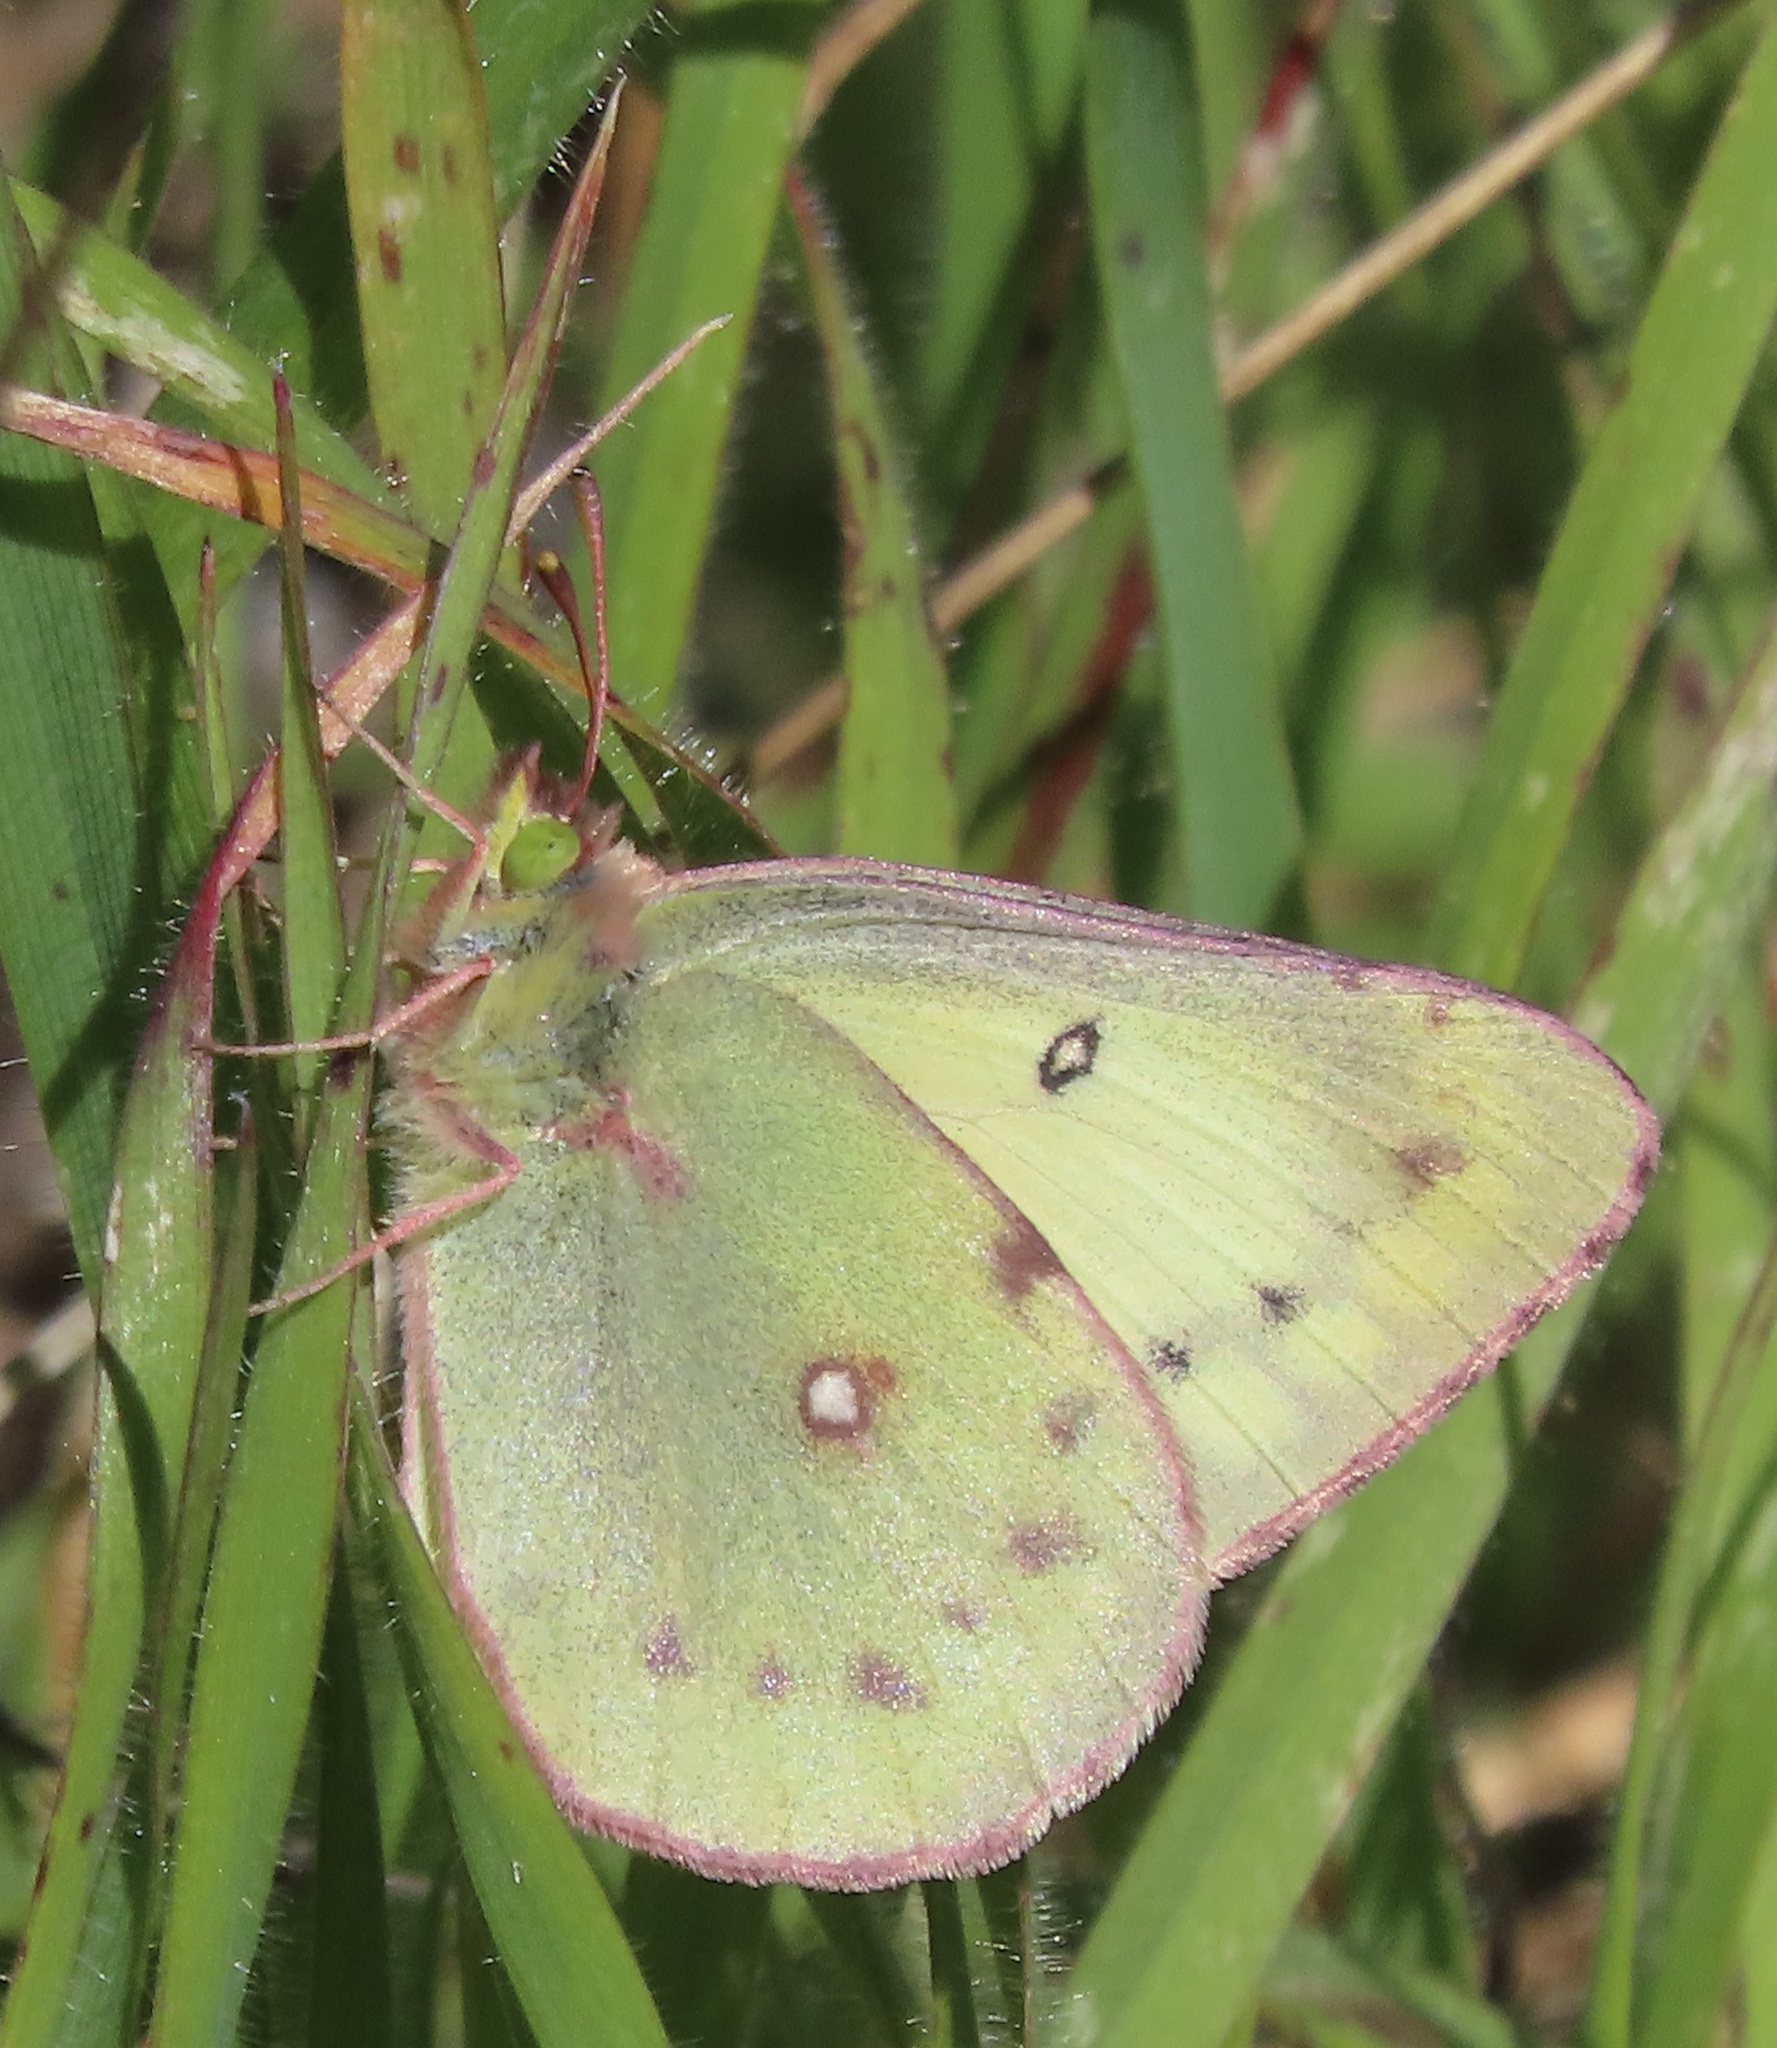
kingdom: Animalia
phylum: Arthropoda
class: Insecta
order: Lepidoptera
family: Pieridae
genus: Colias
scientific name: Colias eurytheme
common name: Alfalfa butterfly
